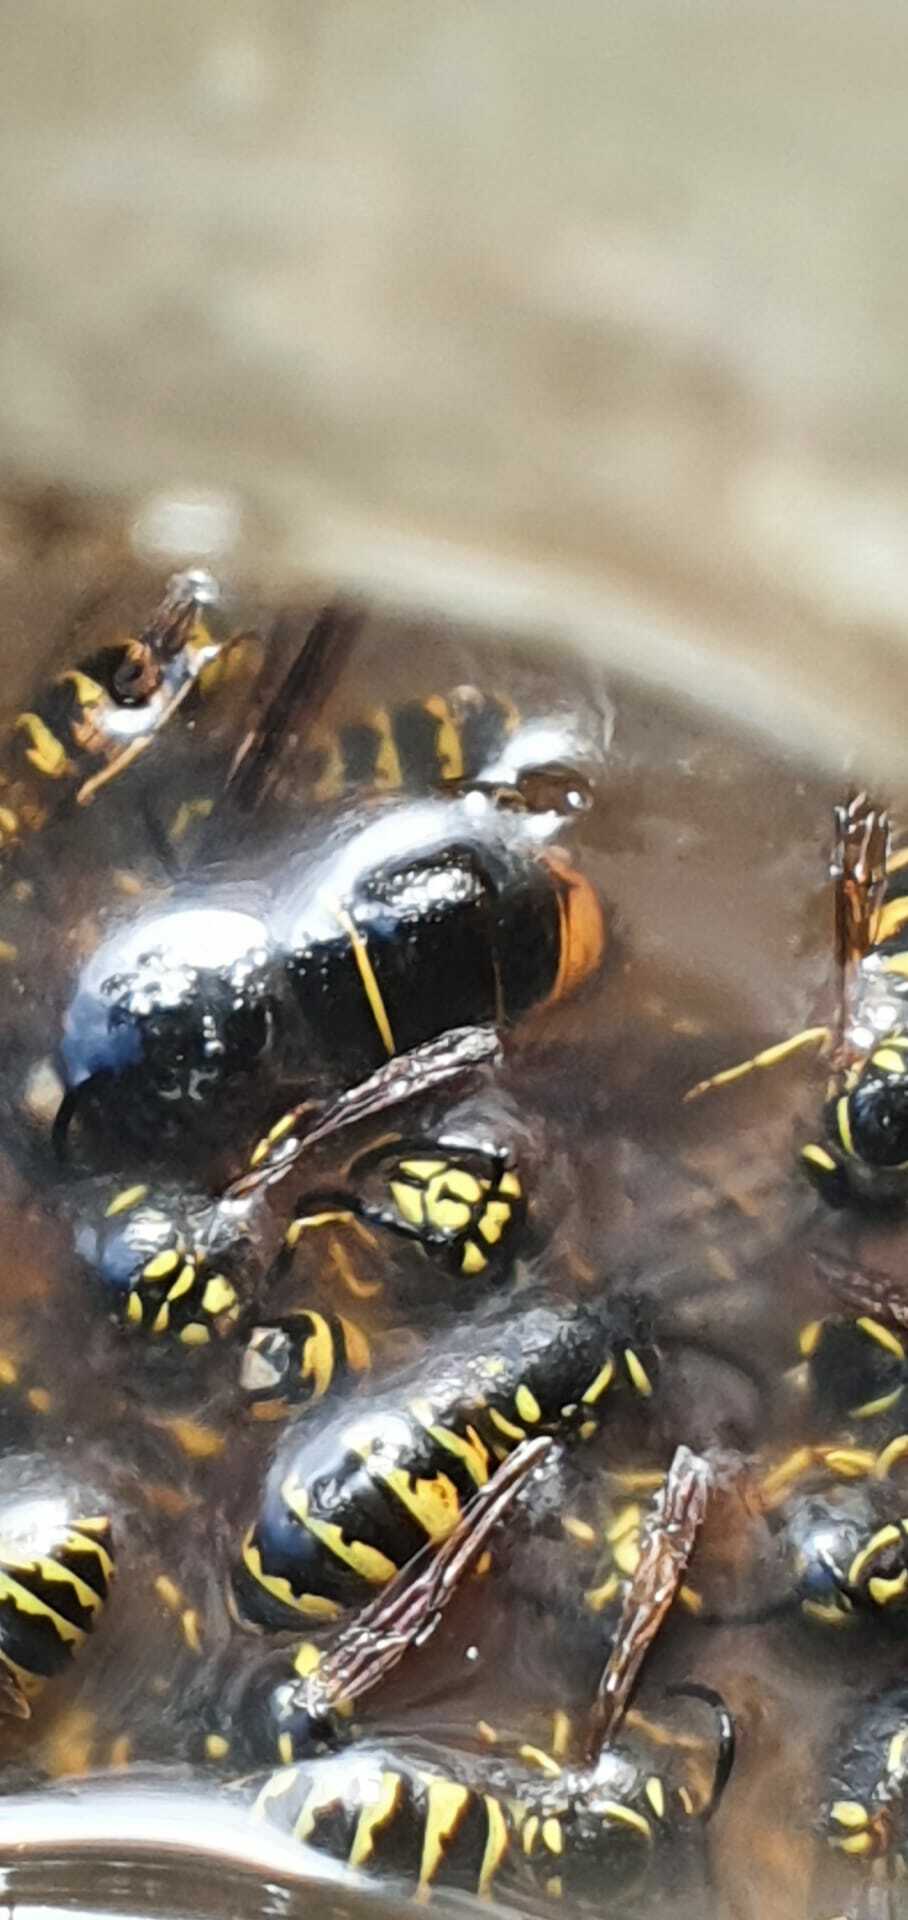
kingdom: Animalia
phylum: Arthropoda
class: Insecta
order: Hymenoptera
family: Vespidae
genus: Vespa
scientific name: Vespa velutina
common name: Asian hornet
